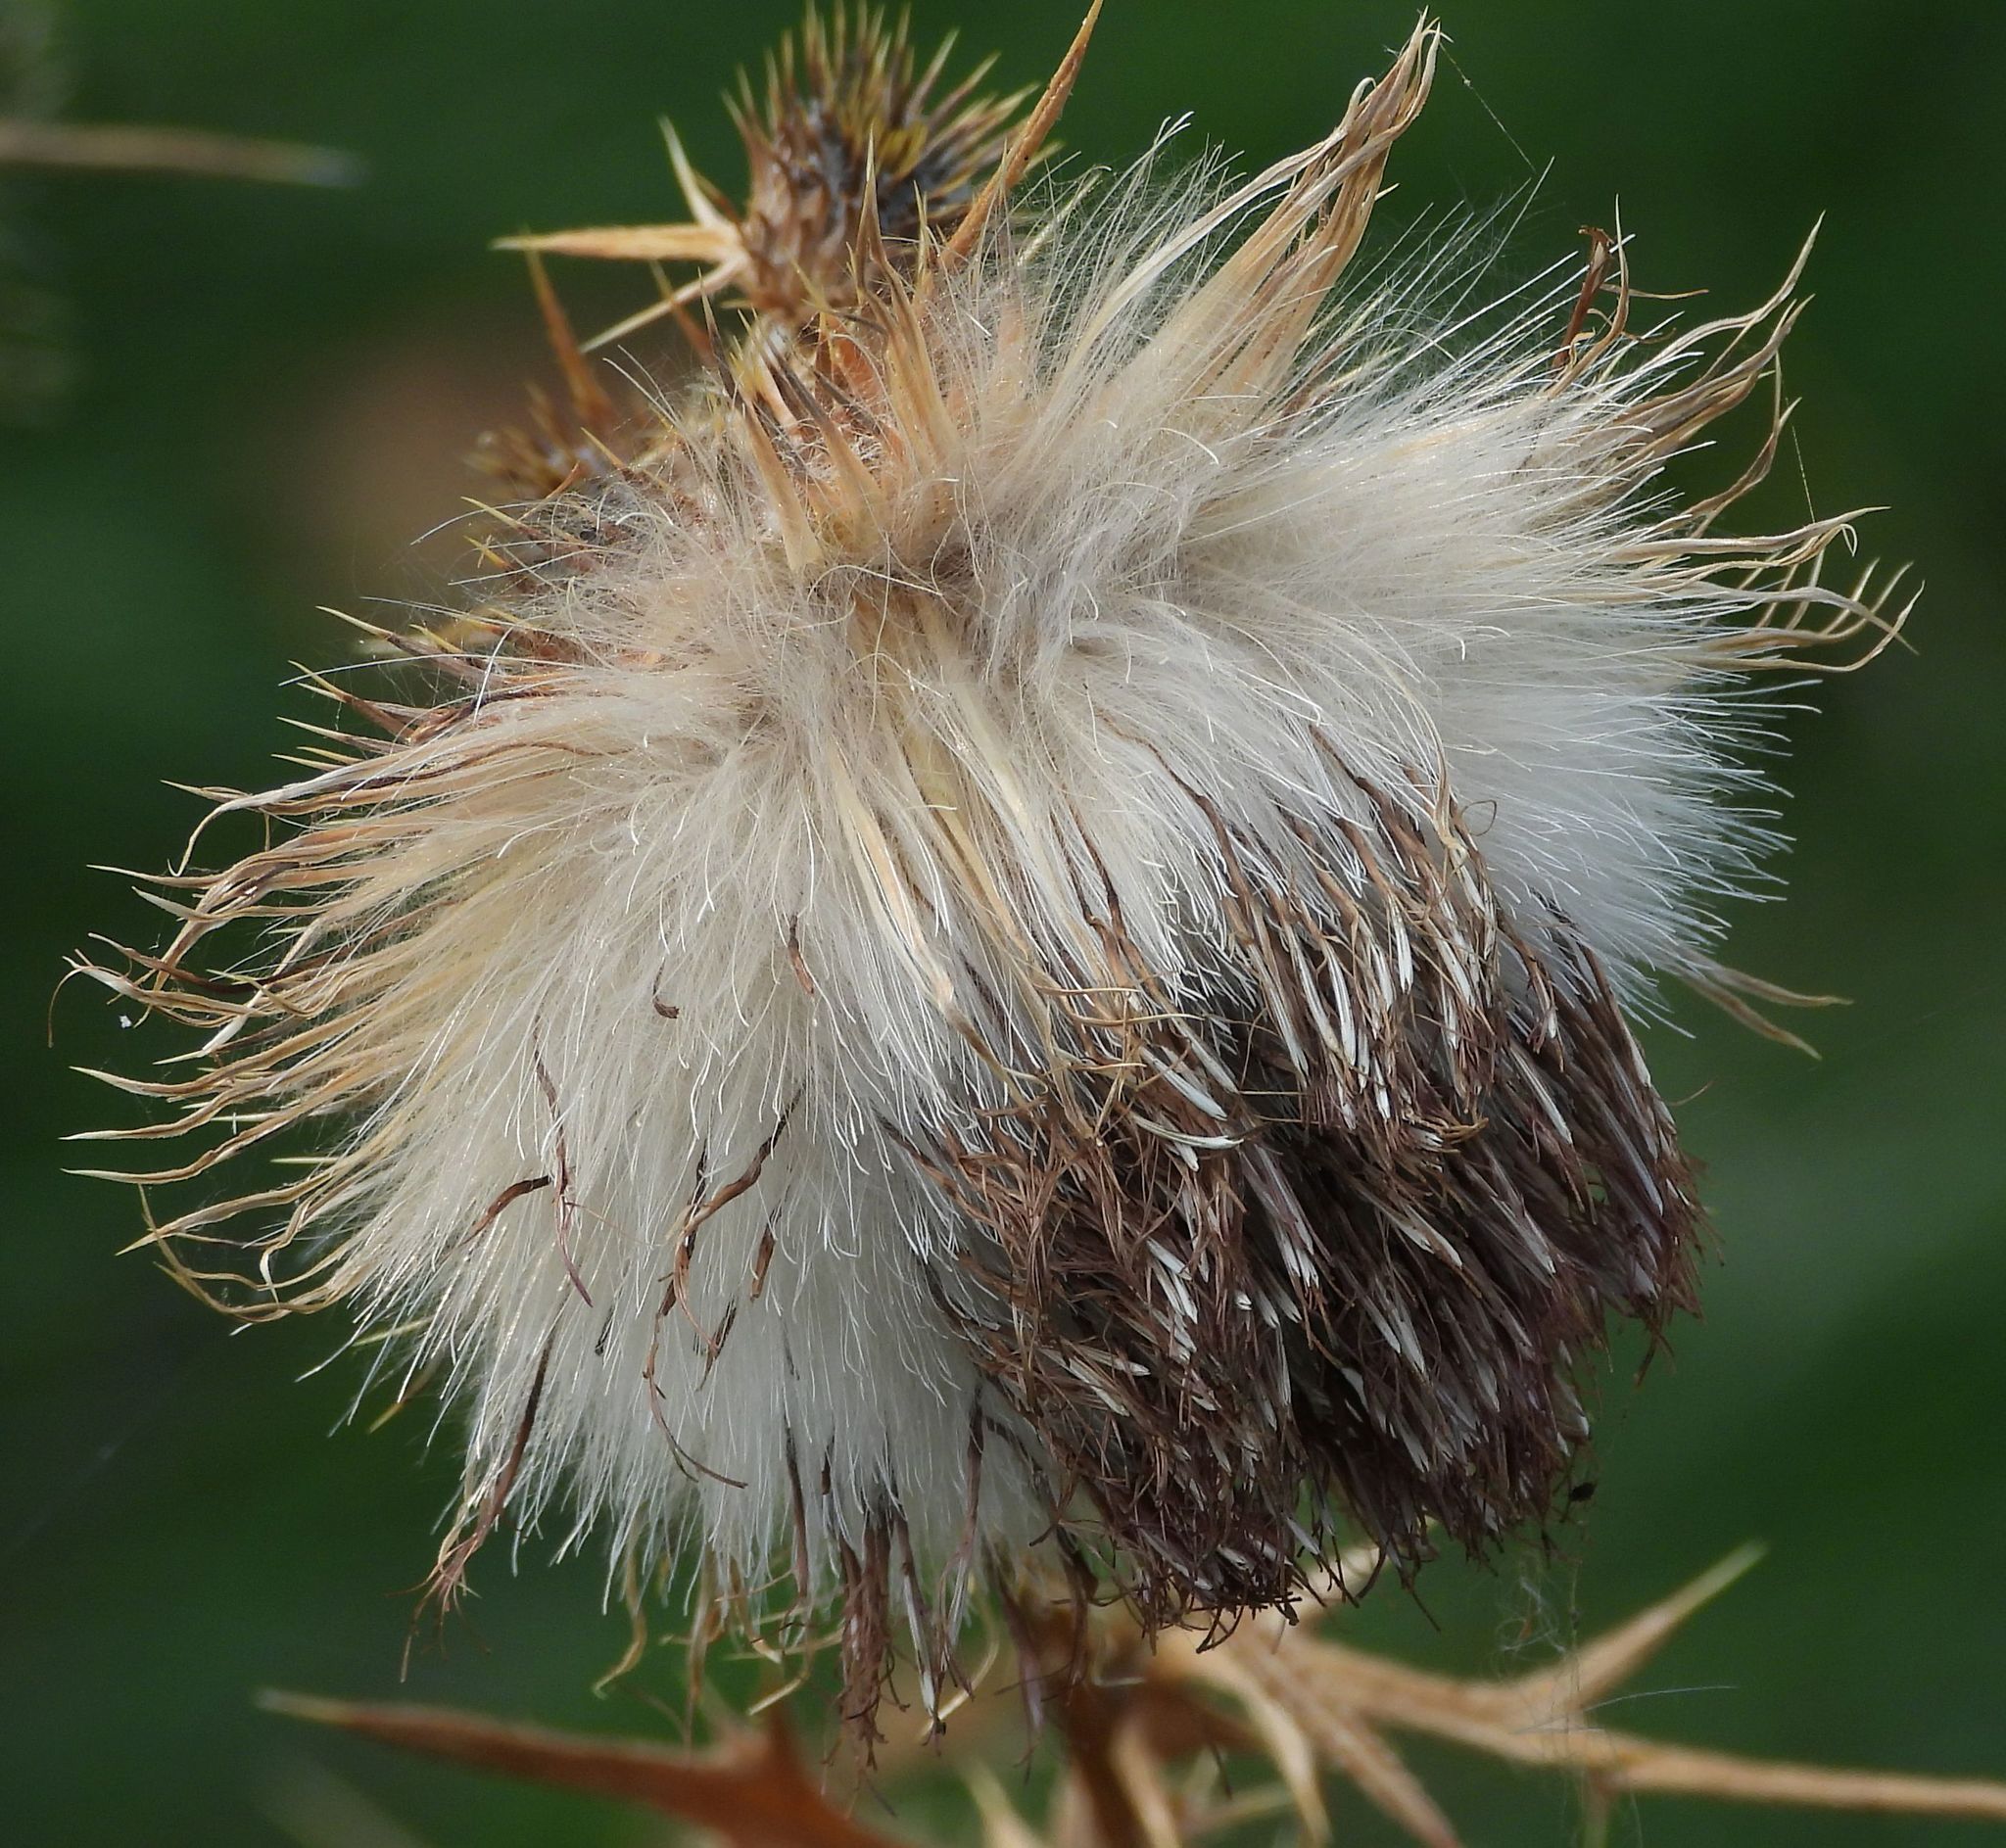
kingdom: Plantae
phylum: Tracheophyta
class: Magnoliopsida
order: Asterales
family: Asteraceae
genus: Cirsium
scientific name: Cirsium vulgare
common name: Bull thistle
